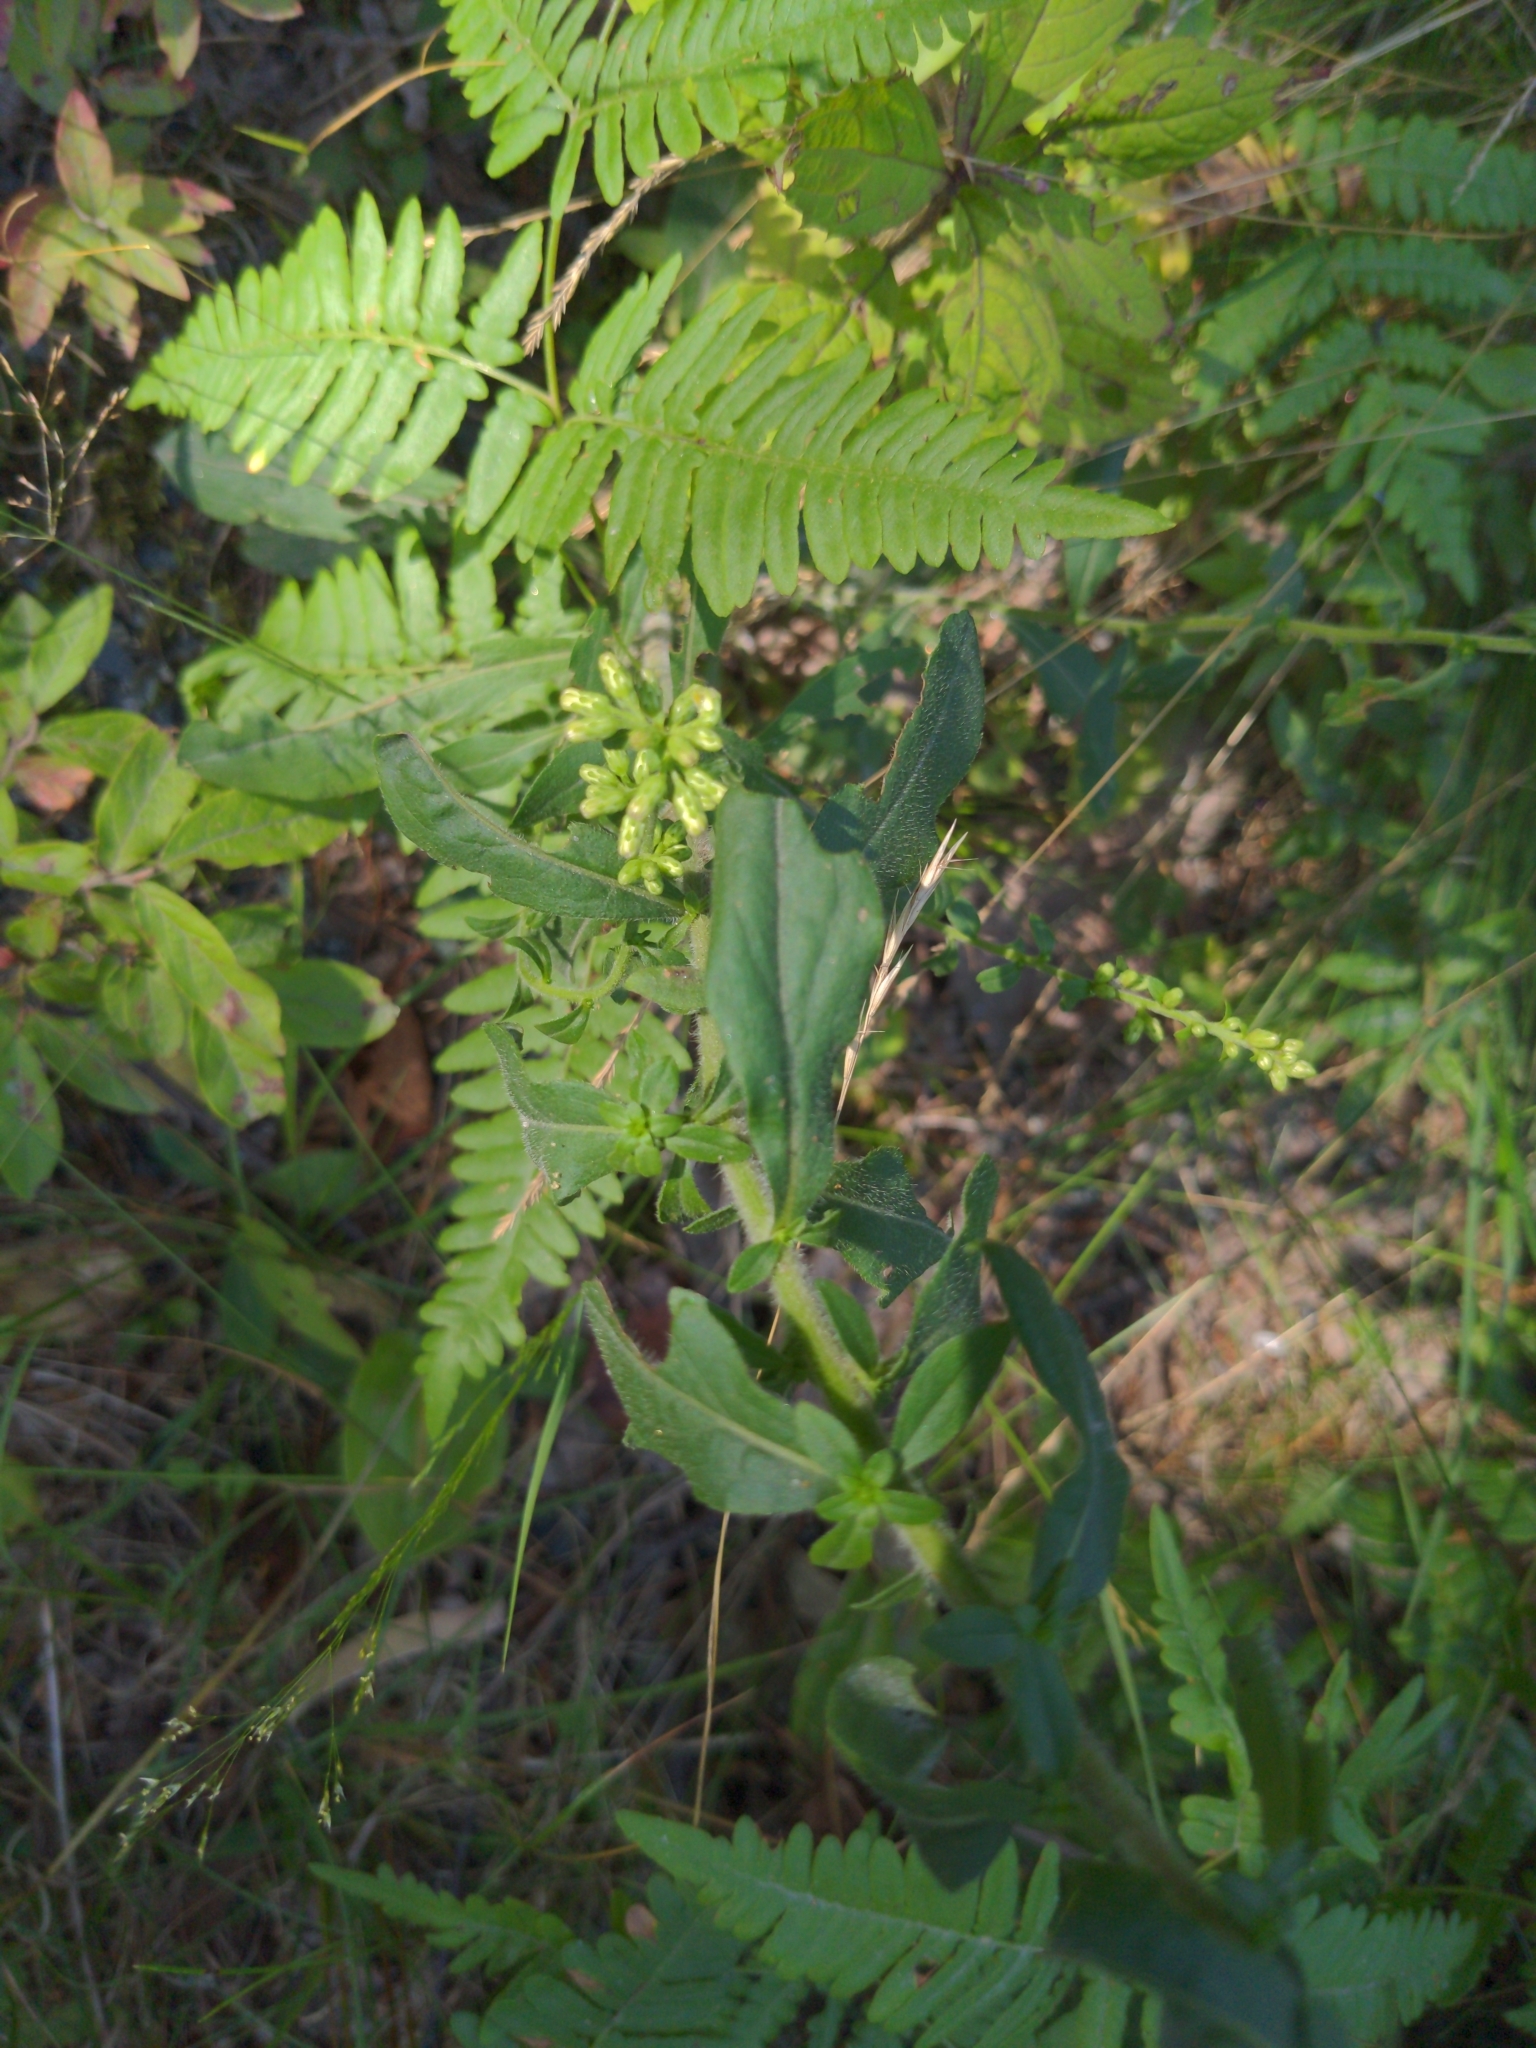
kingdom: Plantae
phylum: Tracheophyta
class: Polypodiopsida
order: Polypodiales
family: Dennstaedtiaceae
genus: Pteridium
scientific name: Pteridium aquilinum
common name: Bracken
